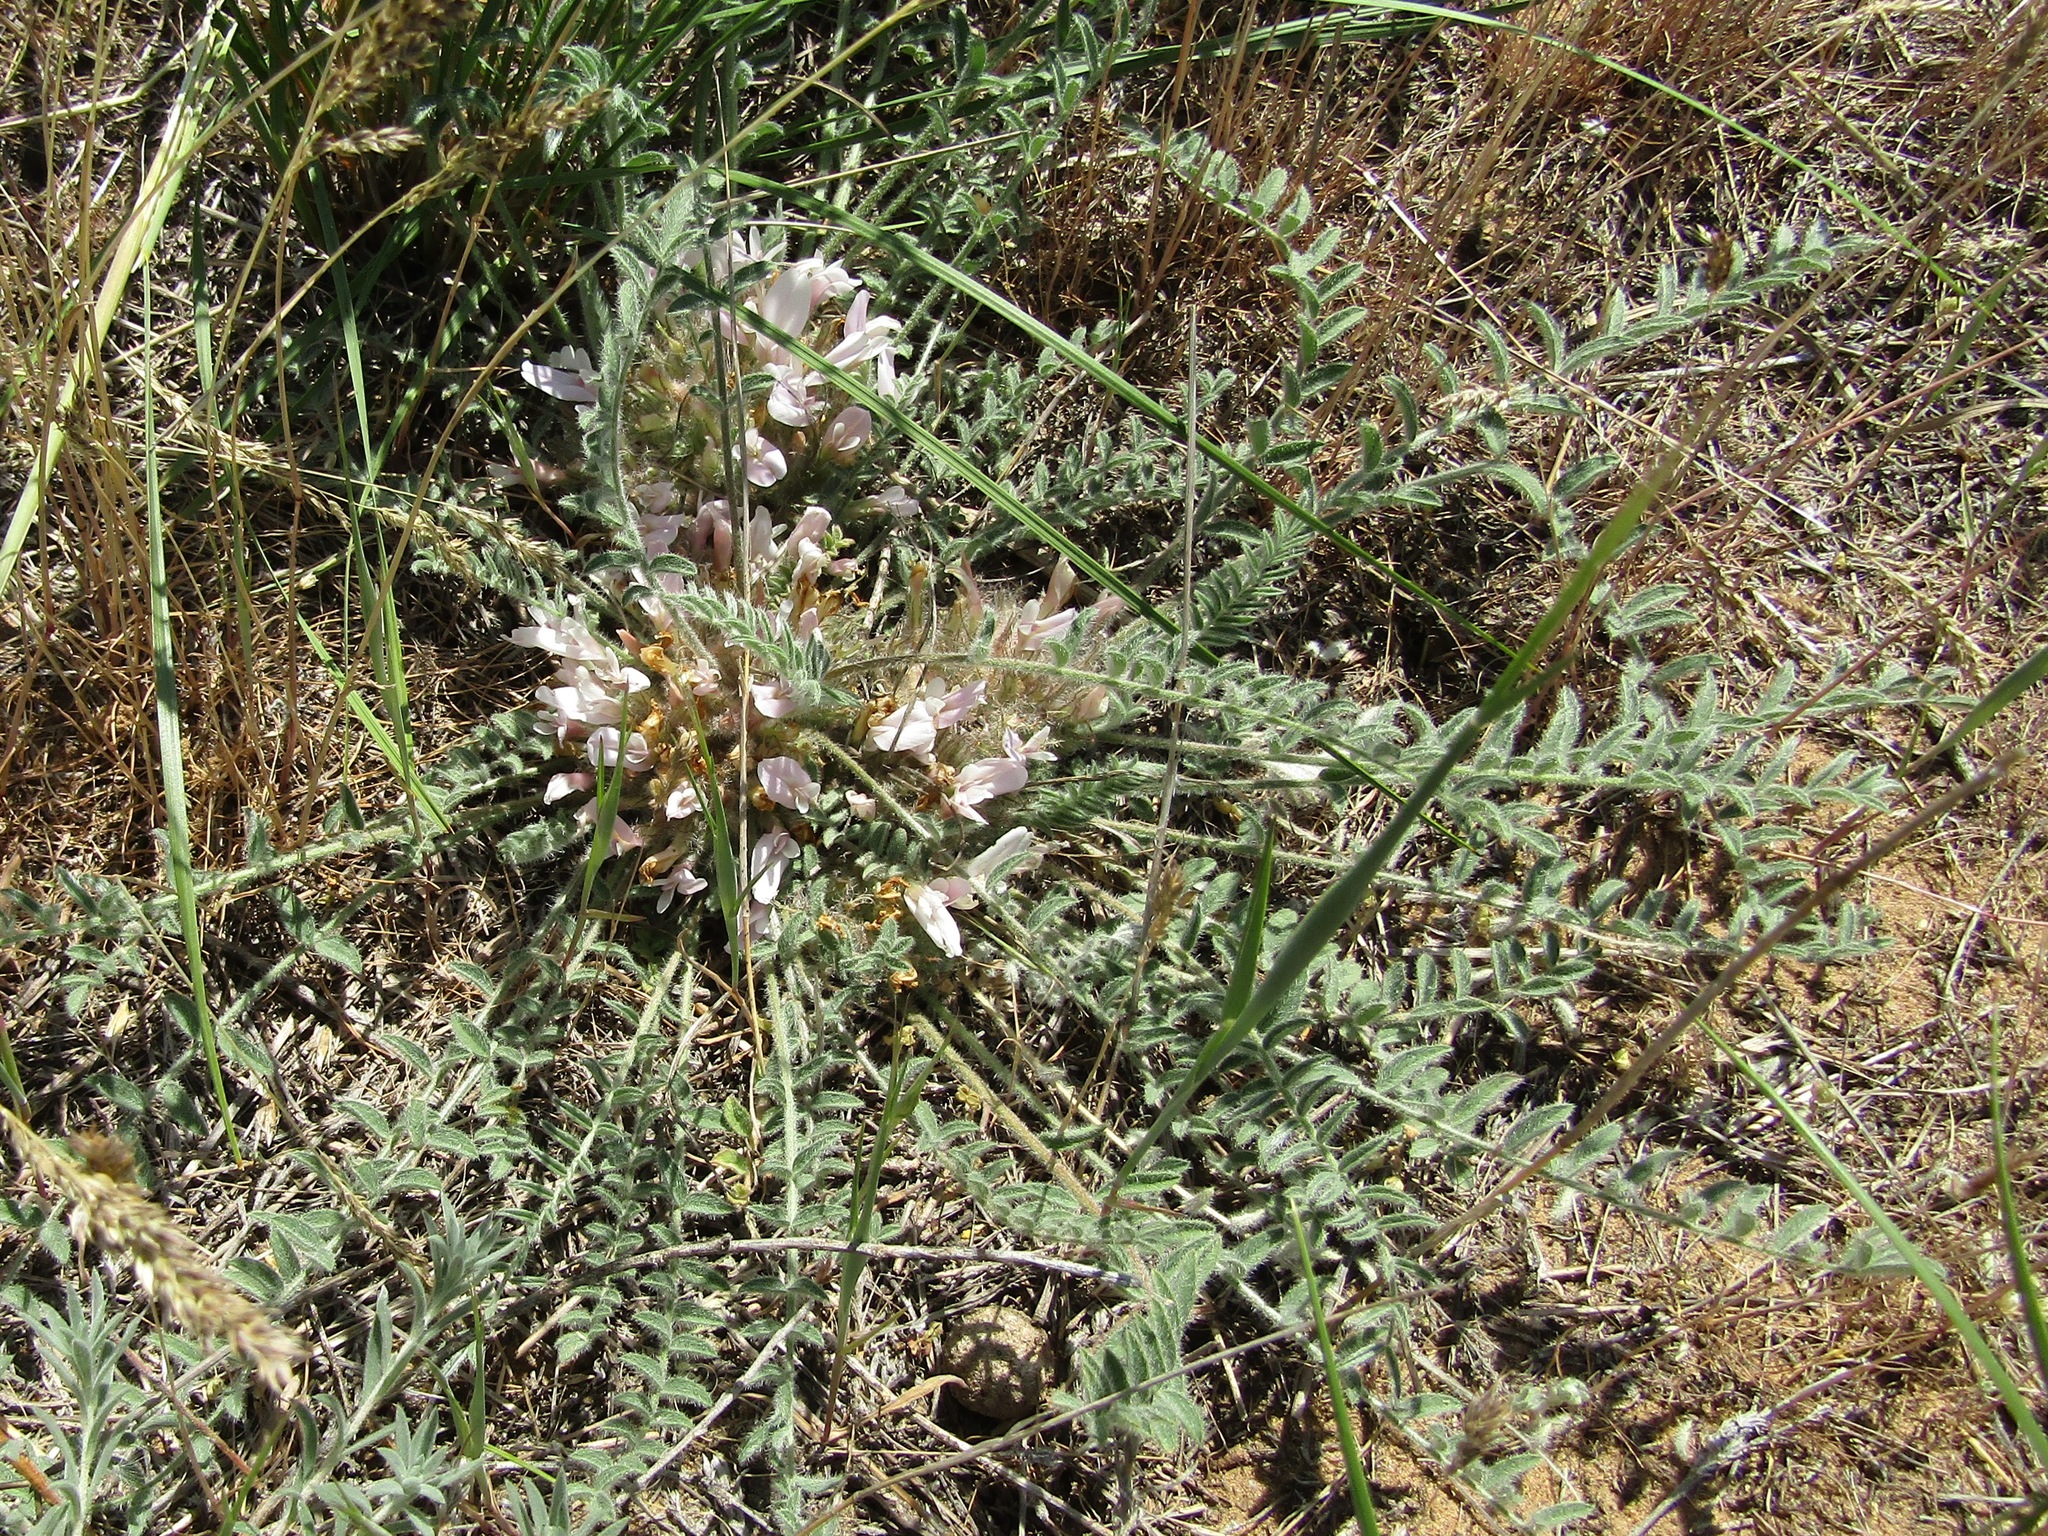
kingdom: Plantae
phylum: Tracheophyta
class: Magnoliopsida
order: Fabales
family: Fabaceae
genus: Astragalus
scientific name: Astragalus dolichophyllus
